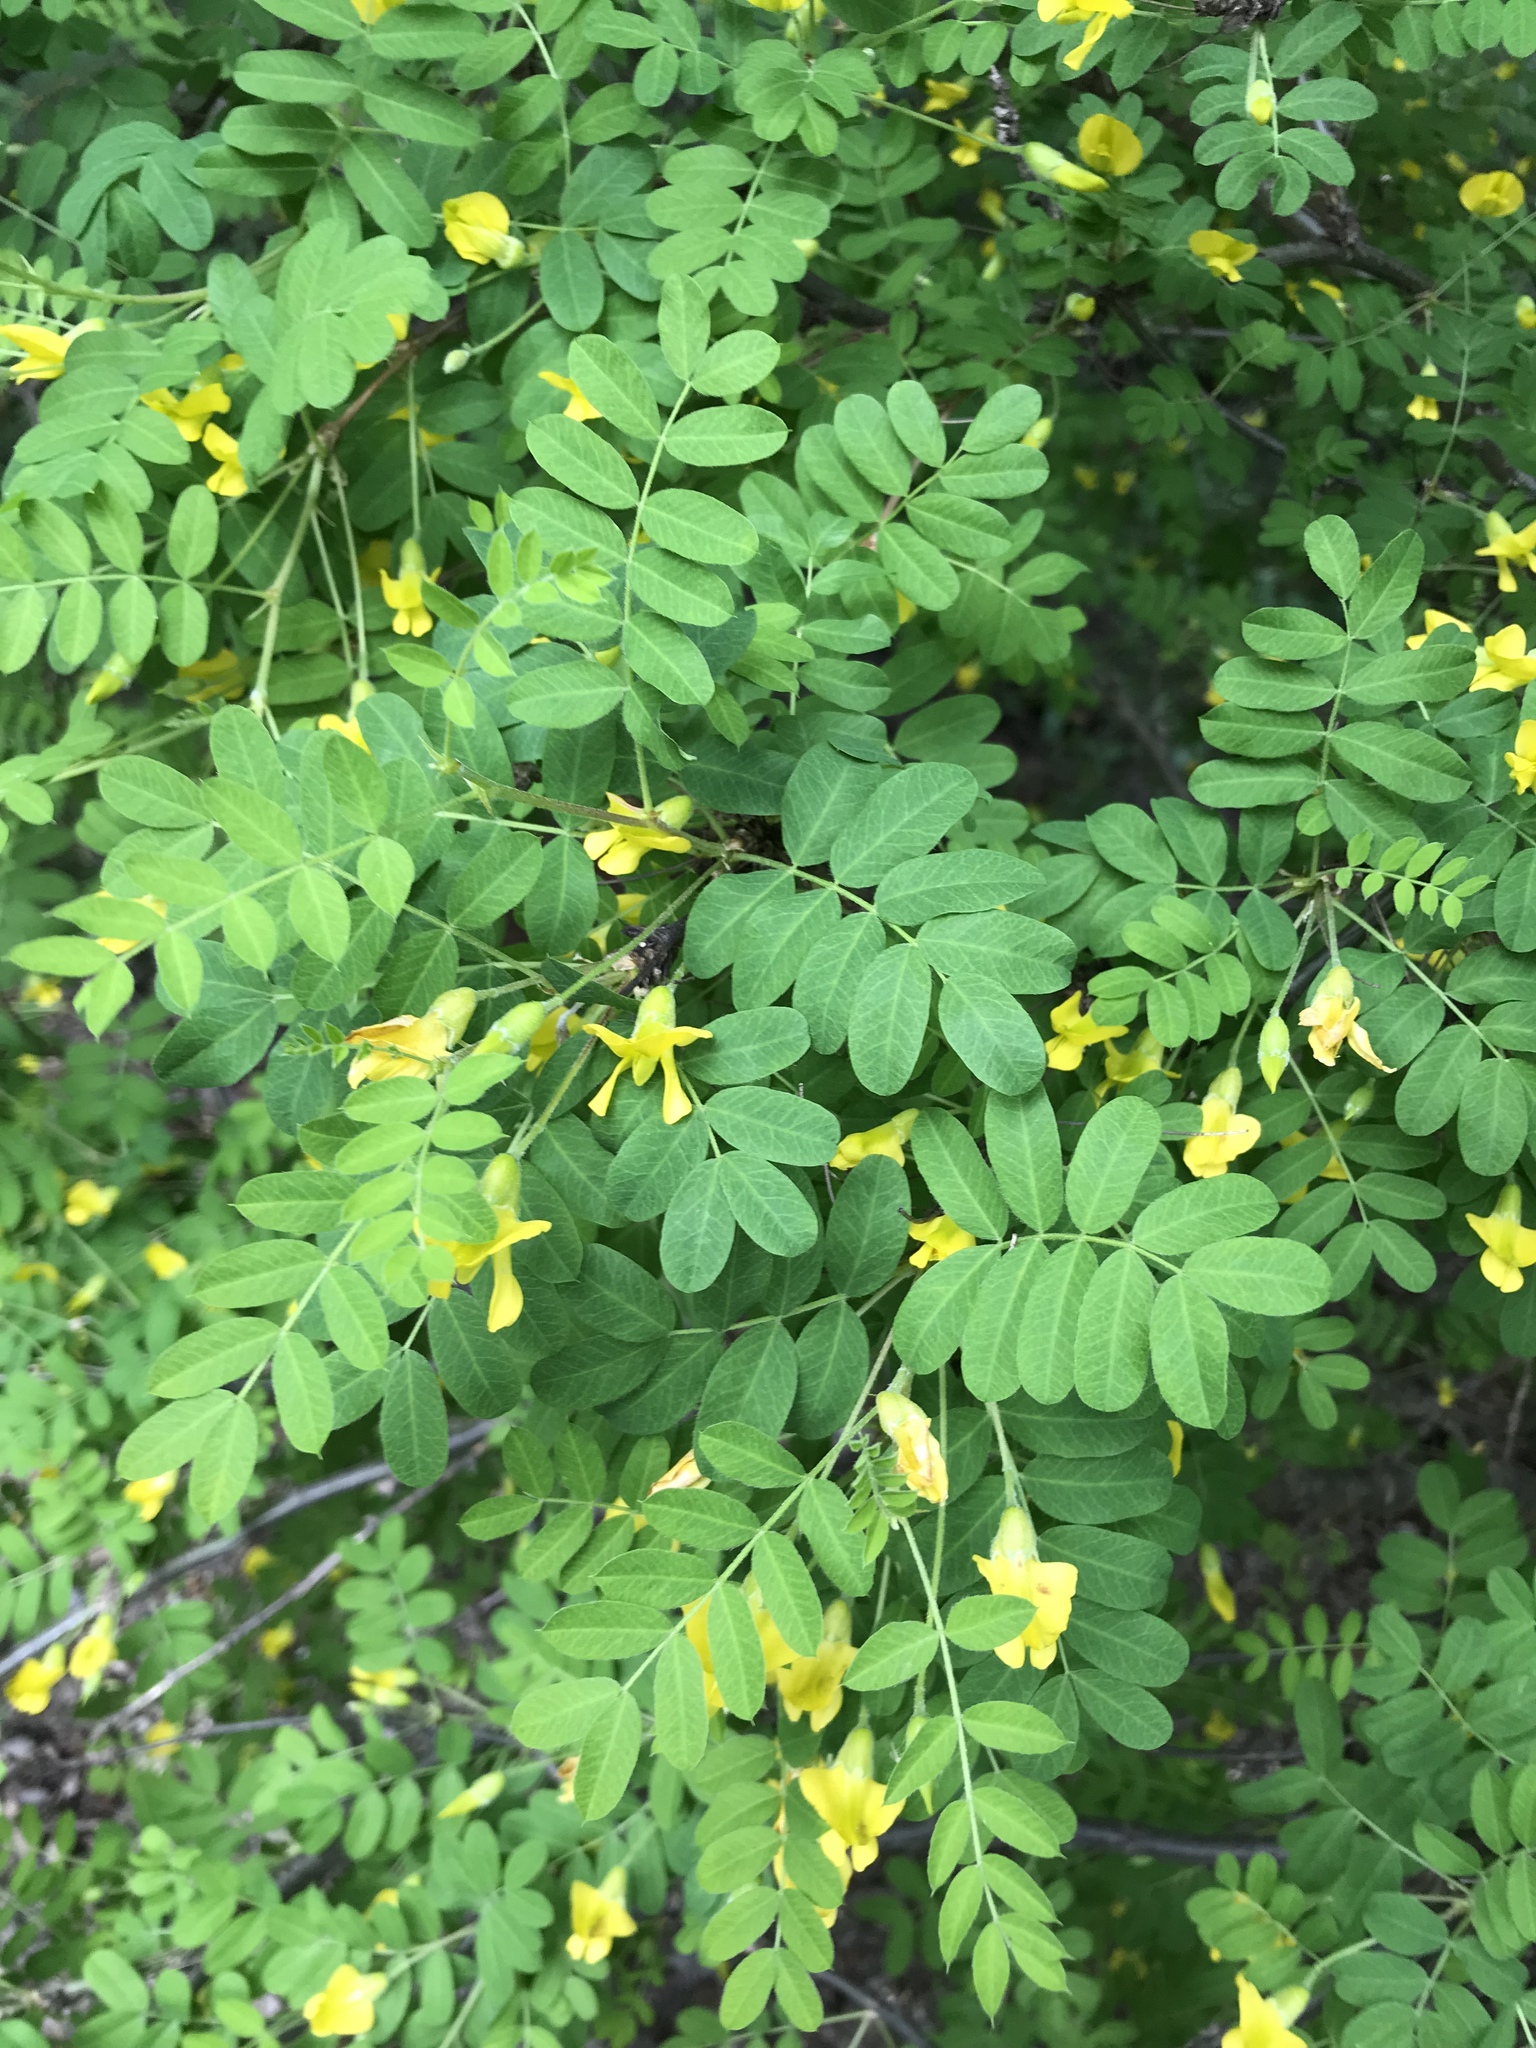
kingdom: Plantae
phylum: Tracheophyta
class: Magnoliopsida
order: Fabales
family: Fabaceae
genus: Caragana
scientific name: Caragana arborescens
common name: Siberian peashrub
